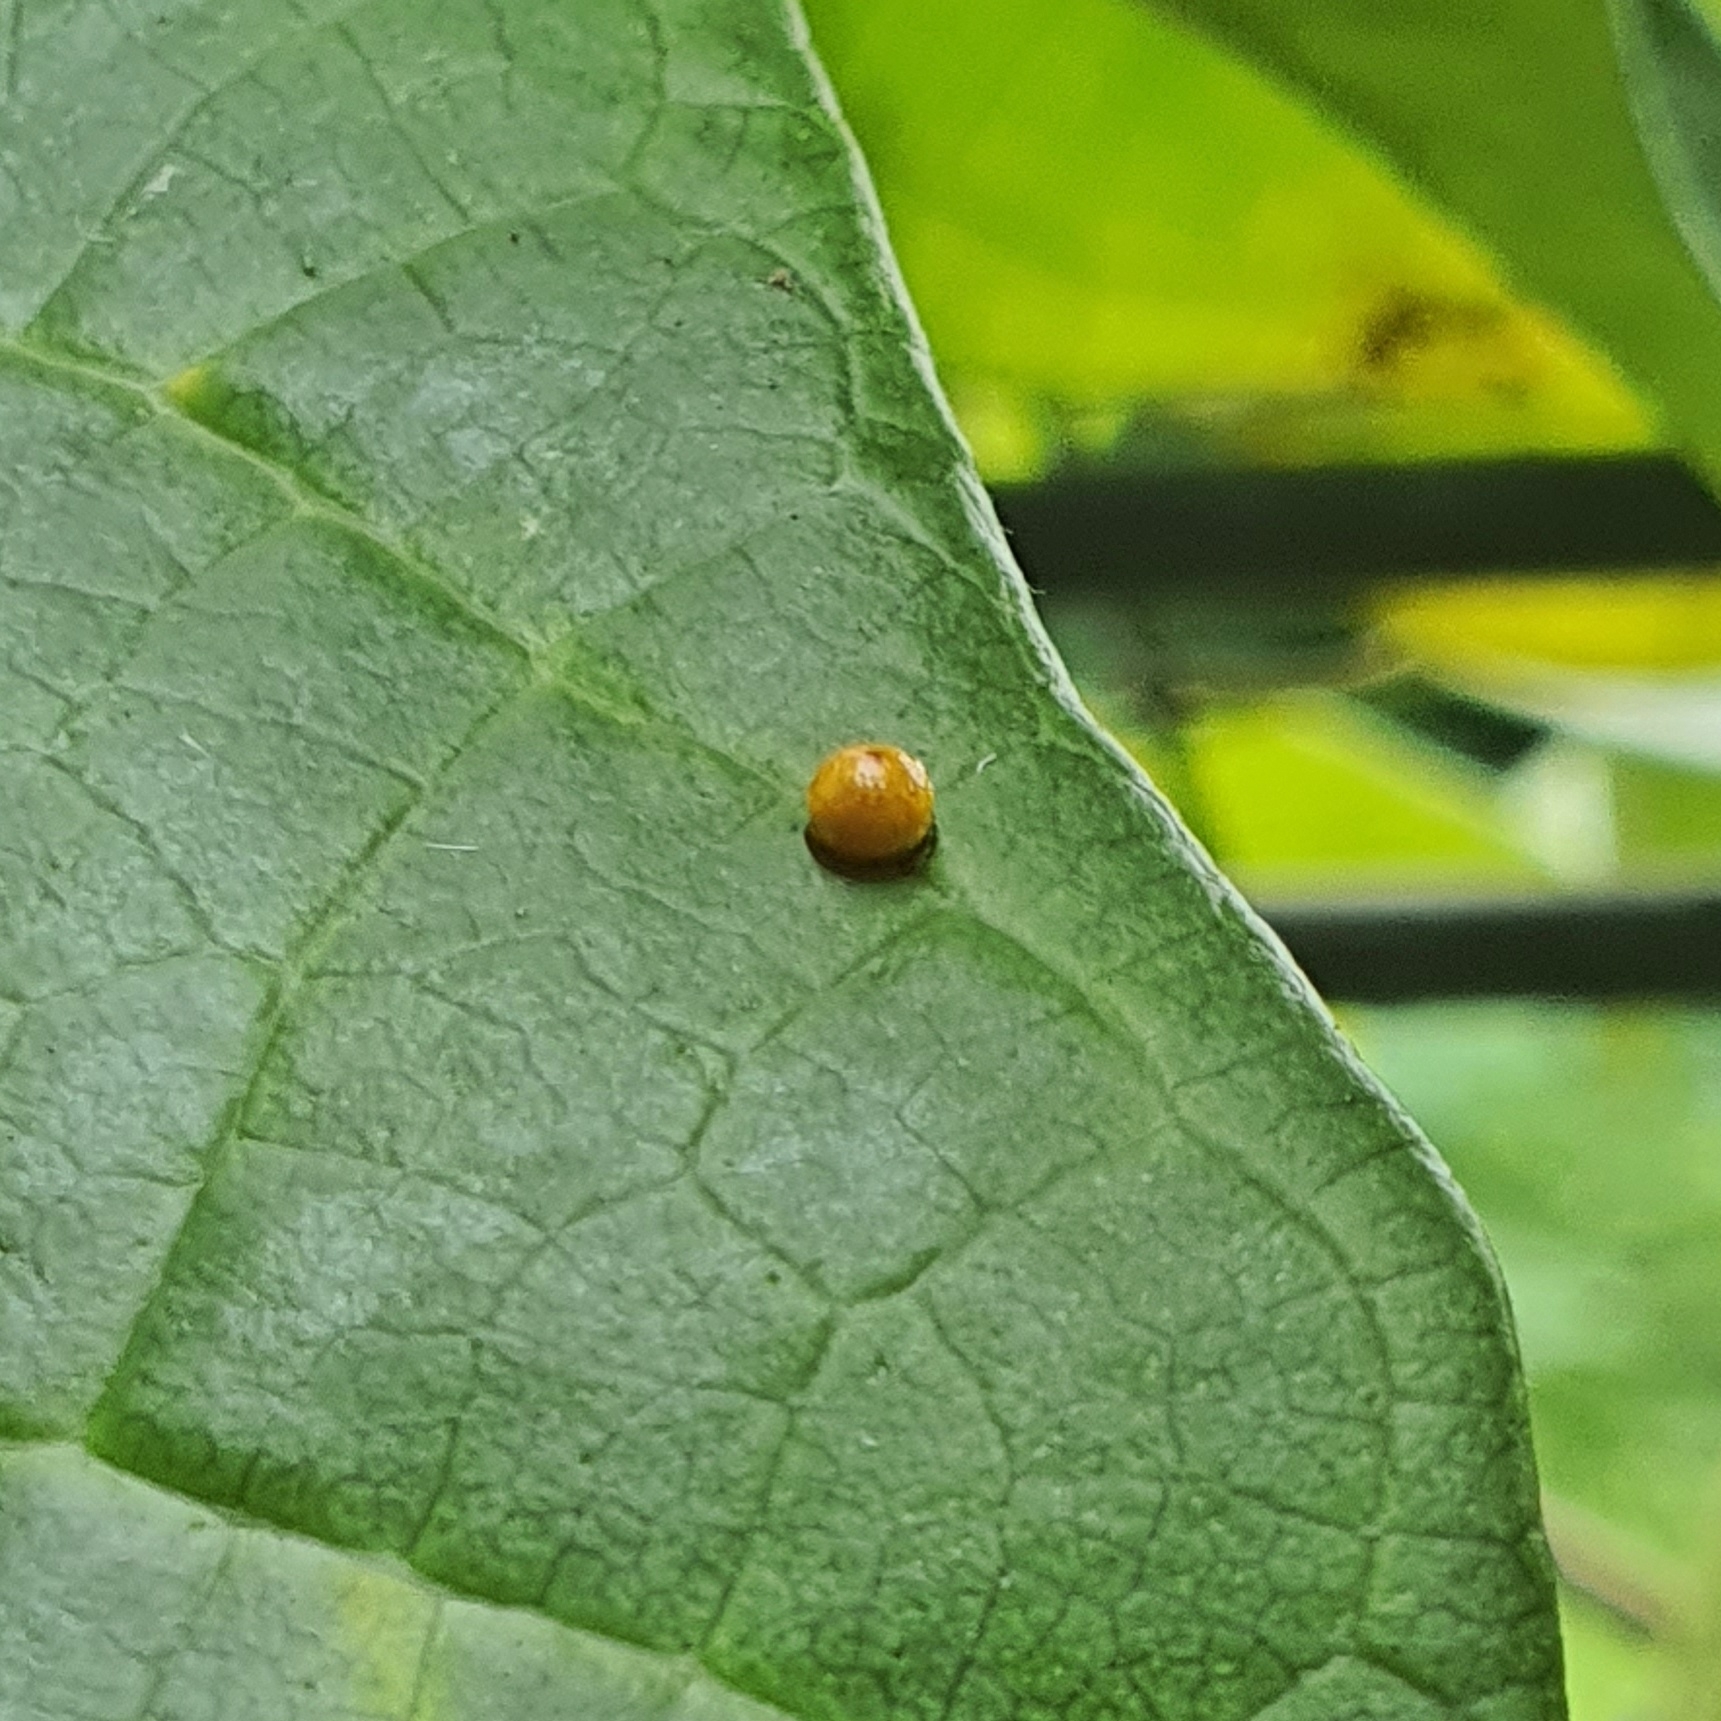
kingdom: Animalia
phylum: Arthropoda
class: Insecta
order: Lepidoptera
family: Papilionidae
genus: Troides
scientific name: Troides helena
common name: Common birdwing
